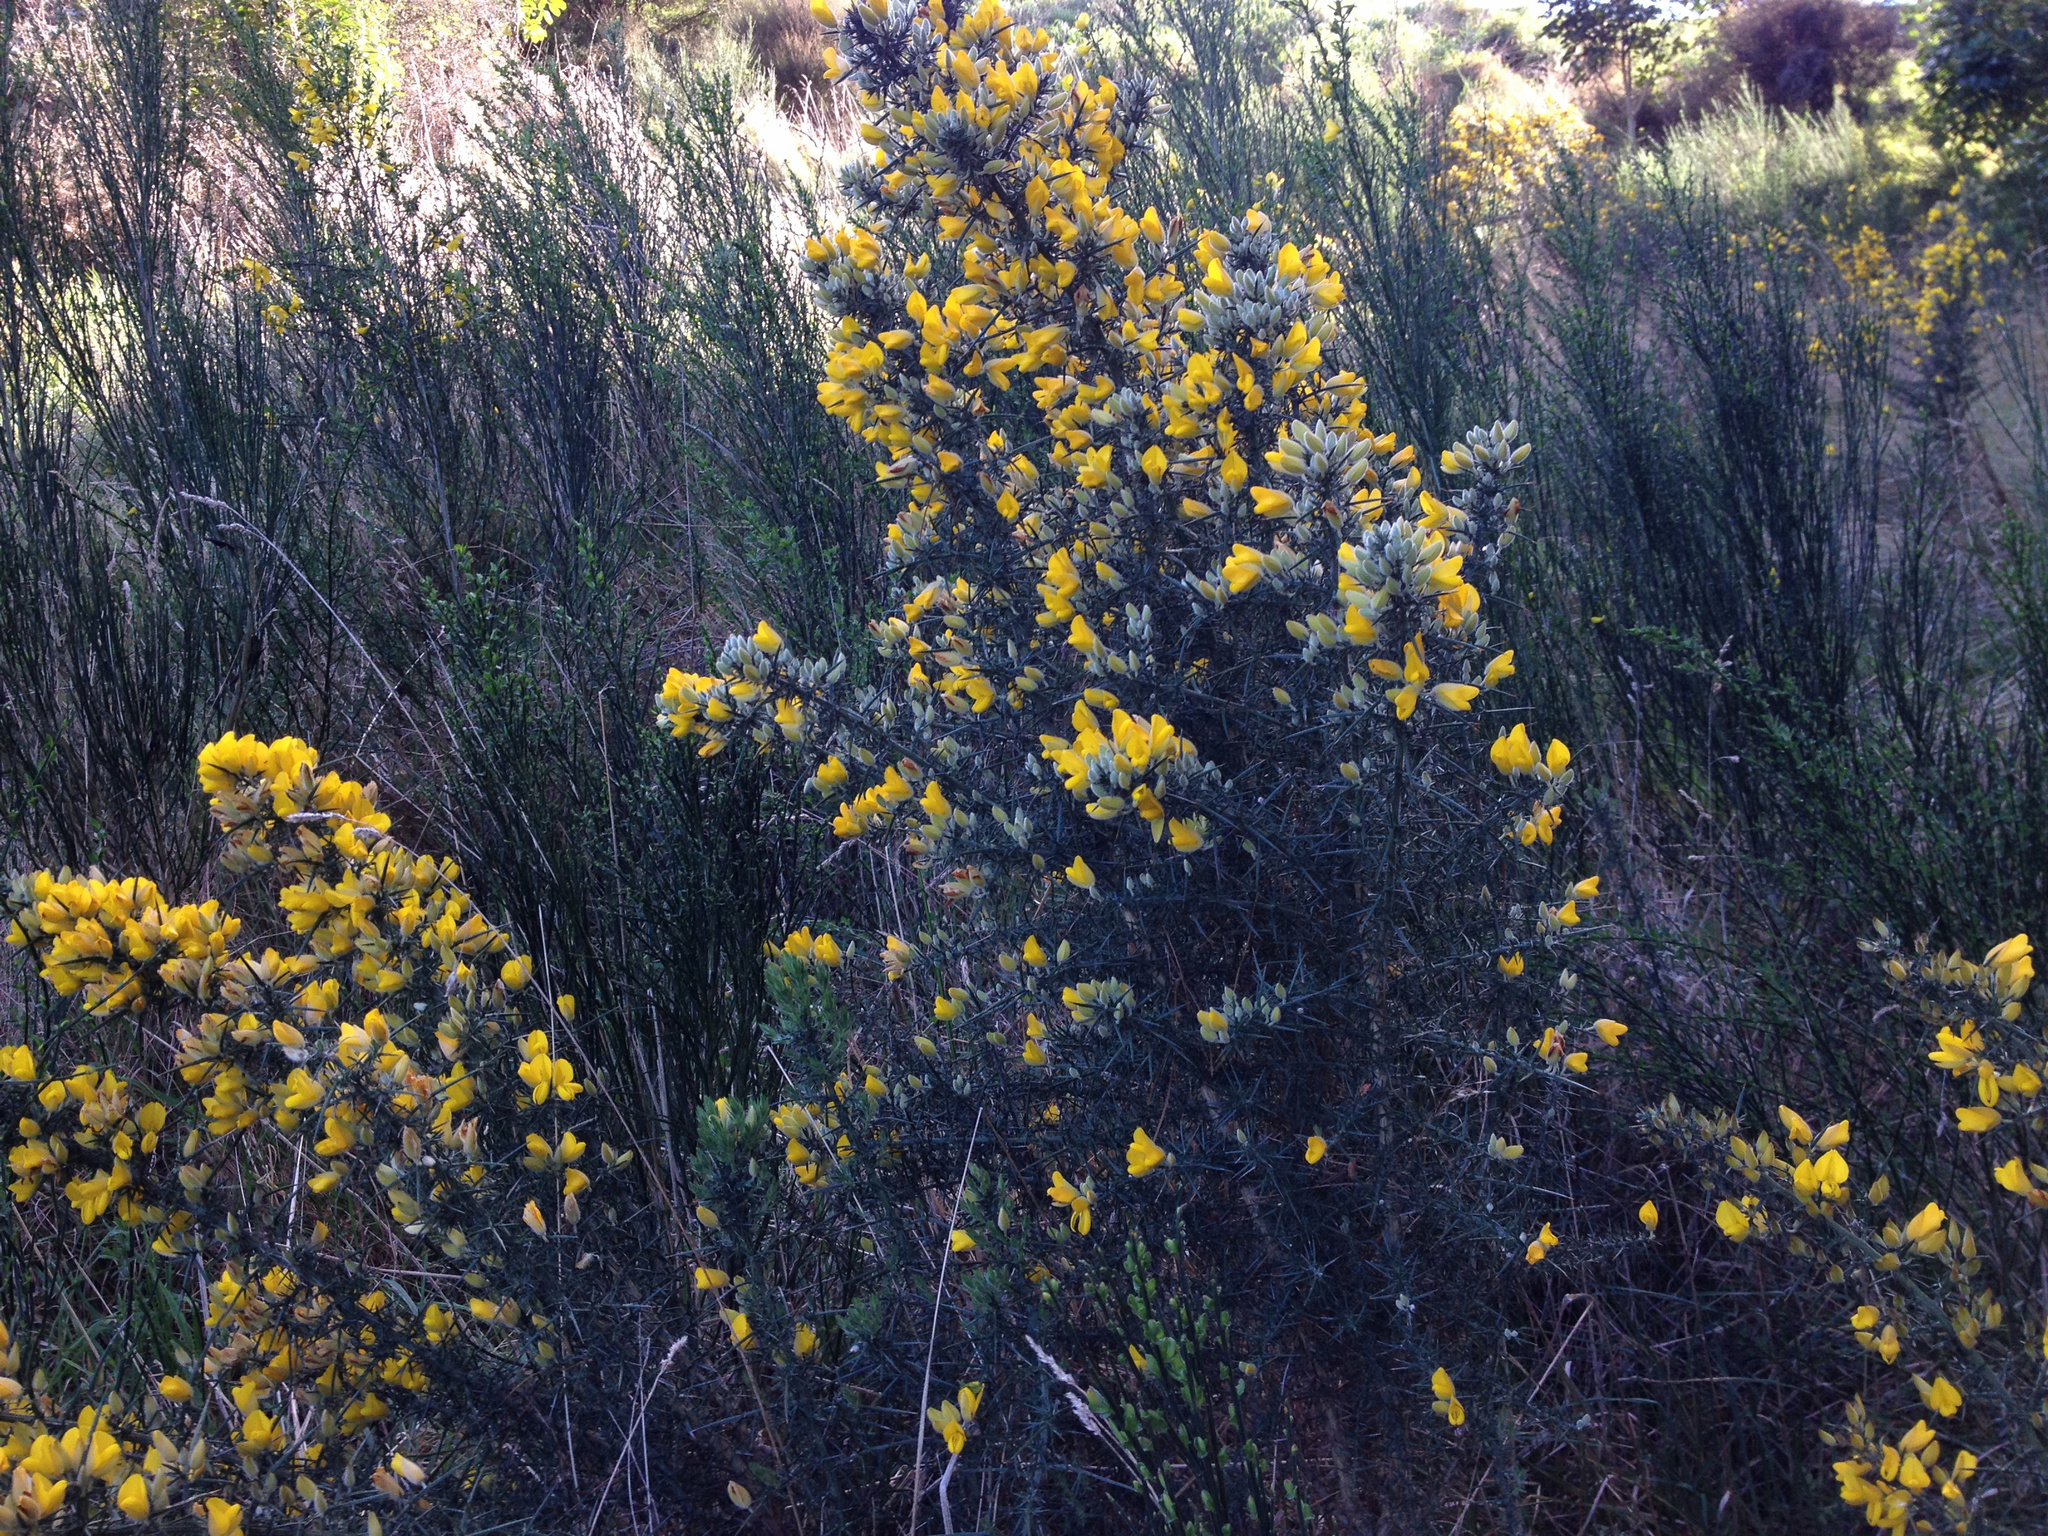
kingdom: Plantae
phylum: Tracheophyta
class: Magnoliopsida
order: Fabales
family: Fabaceae
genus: Ulex
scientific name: Ulex europaeus
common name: Common gorse
